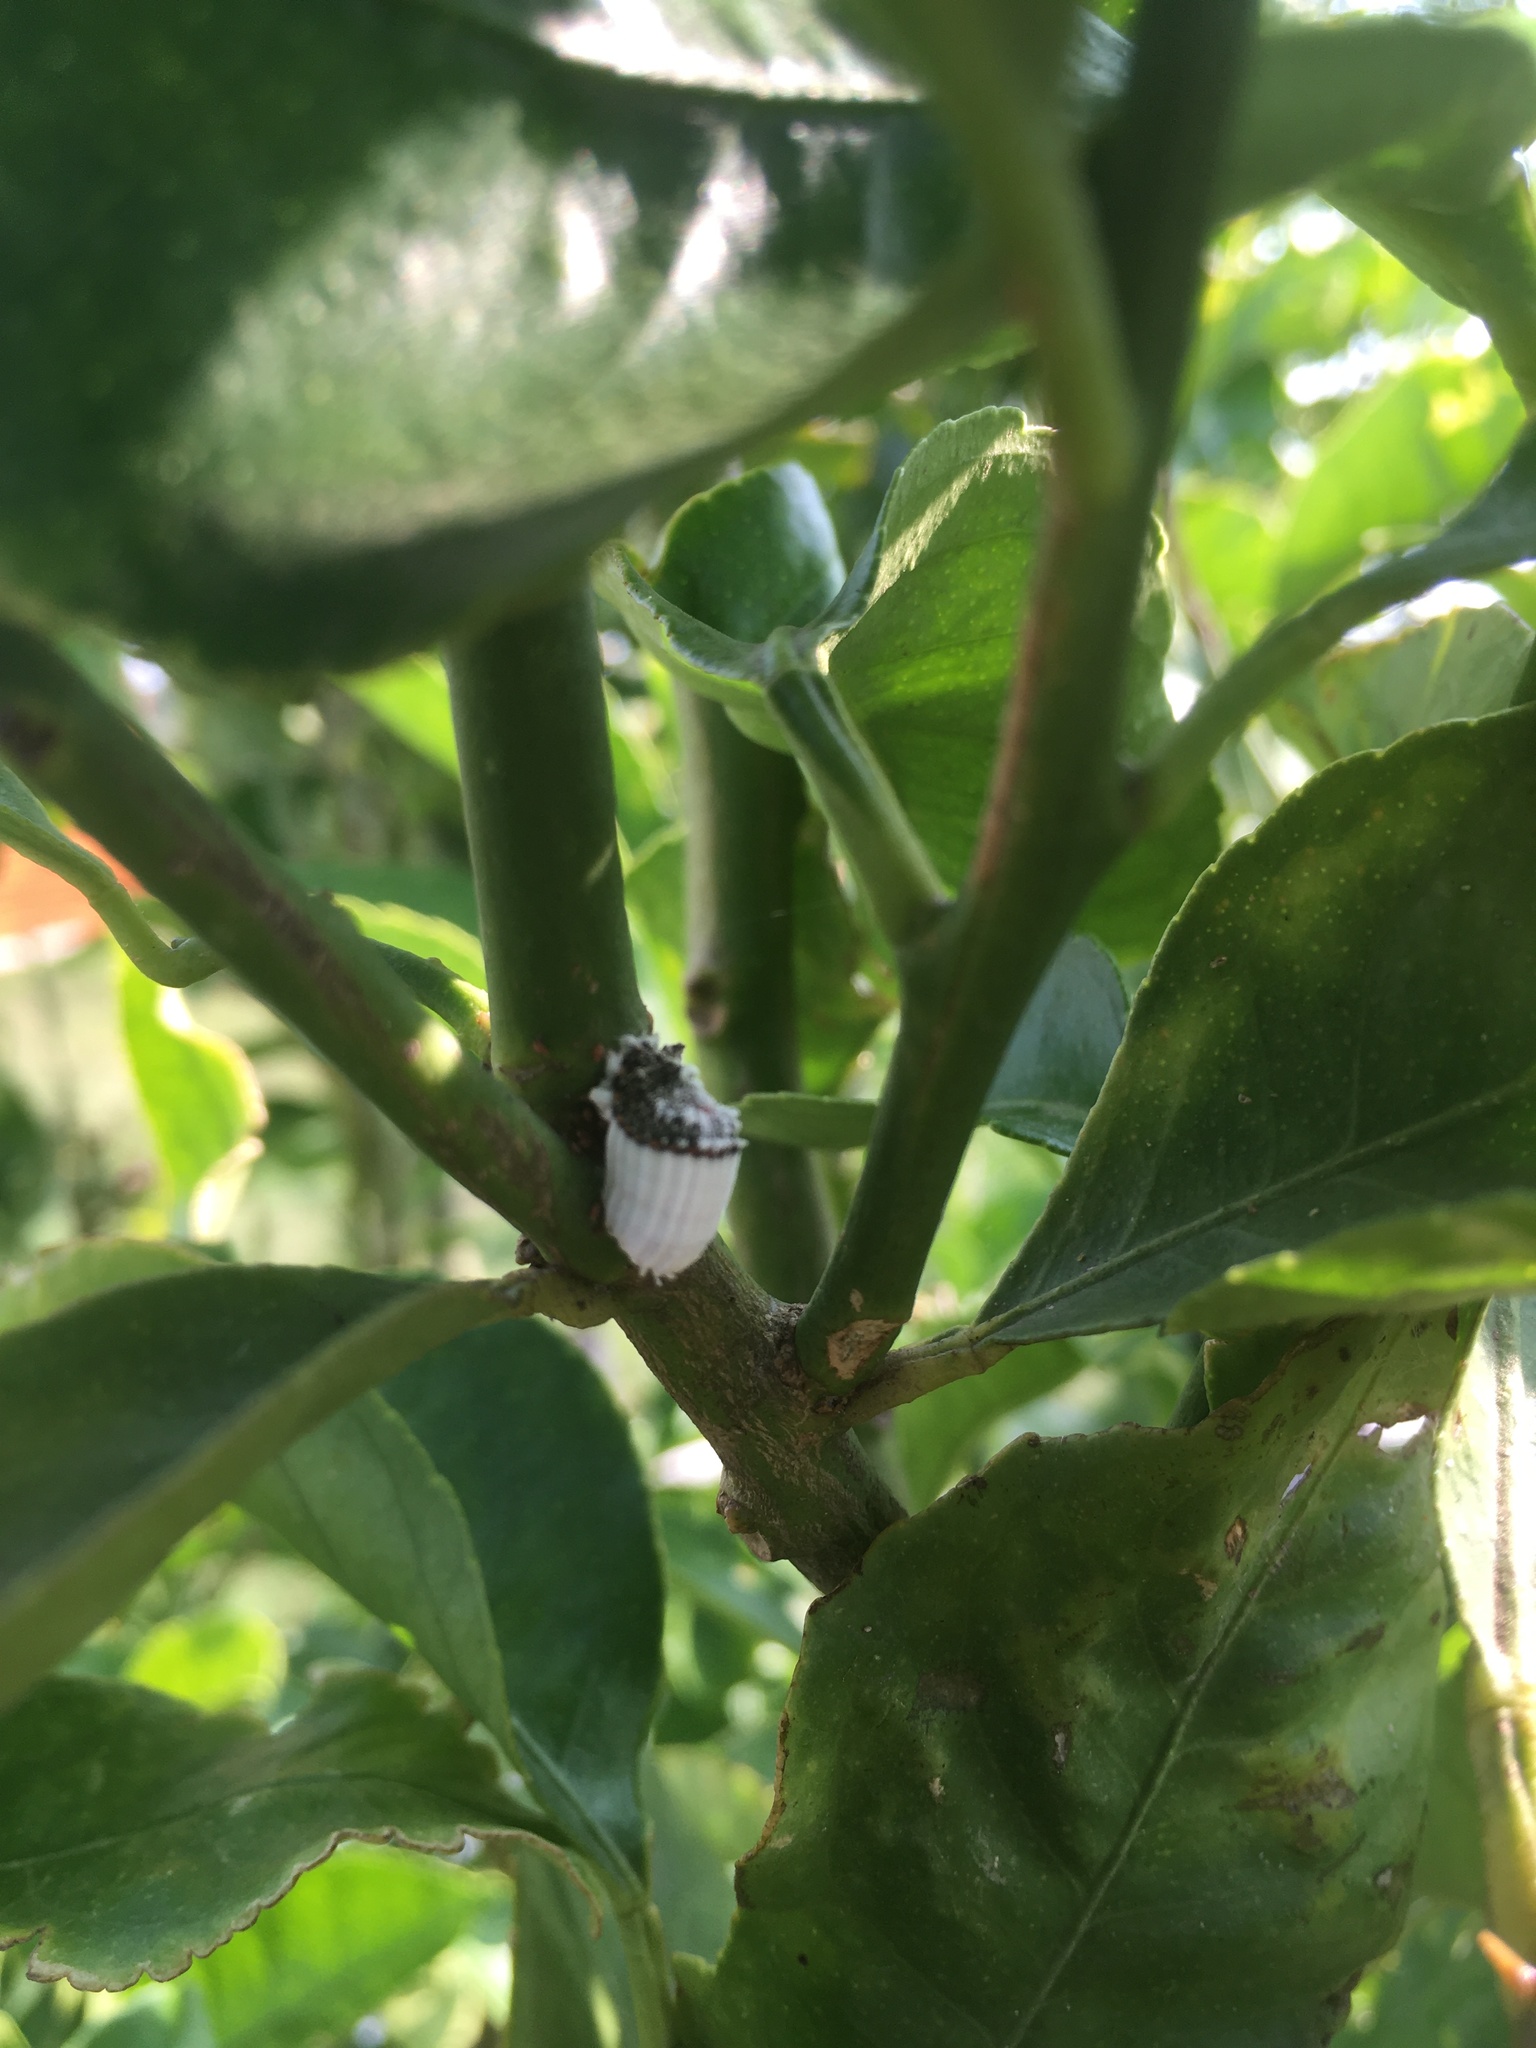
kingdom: Animalia
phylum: Arthropoda
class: Insecta
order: Hemiptera
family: Margarodidae
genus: Icerya
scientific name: Icerya purchasi
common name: Cottony cushion scale
